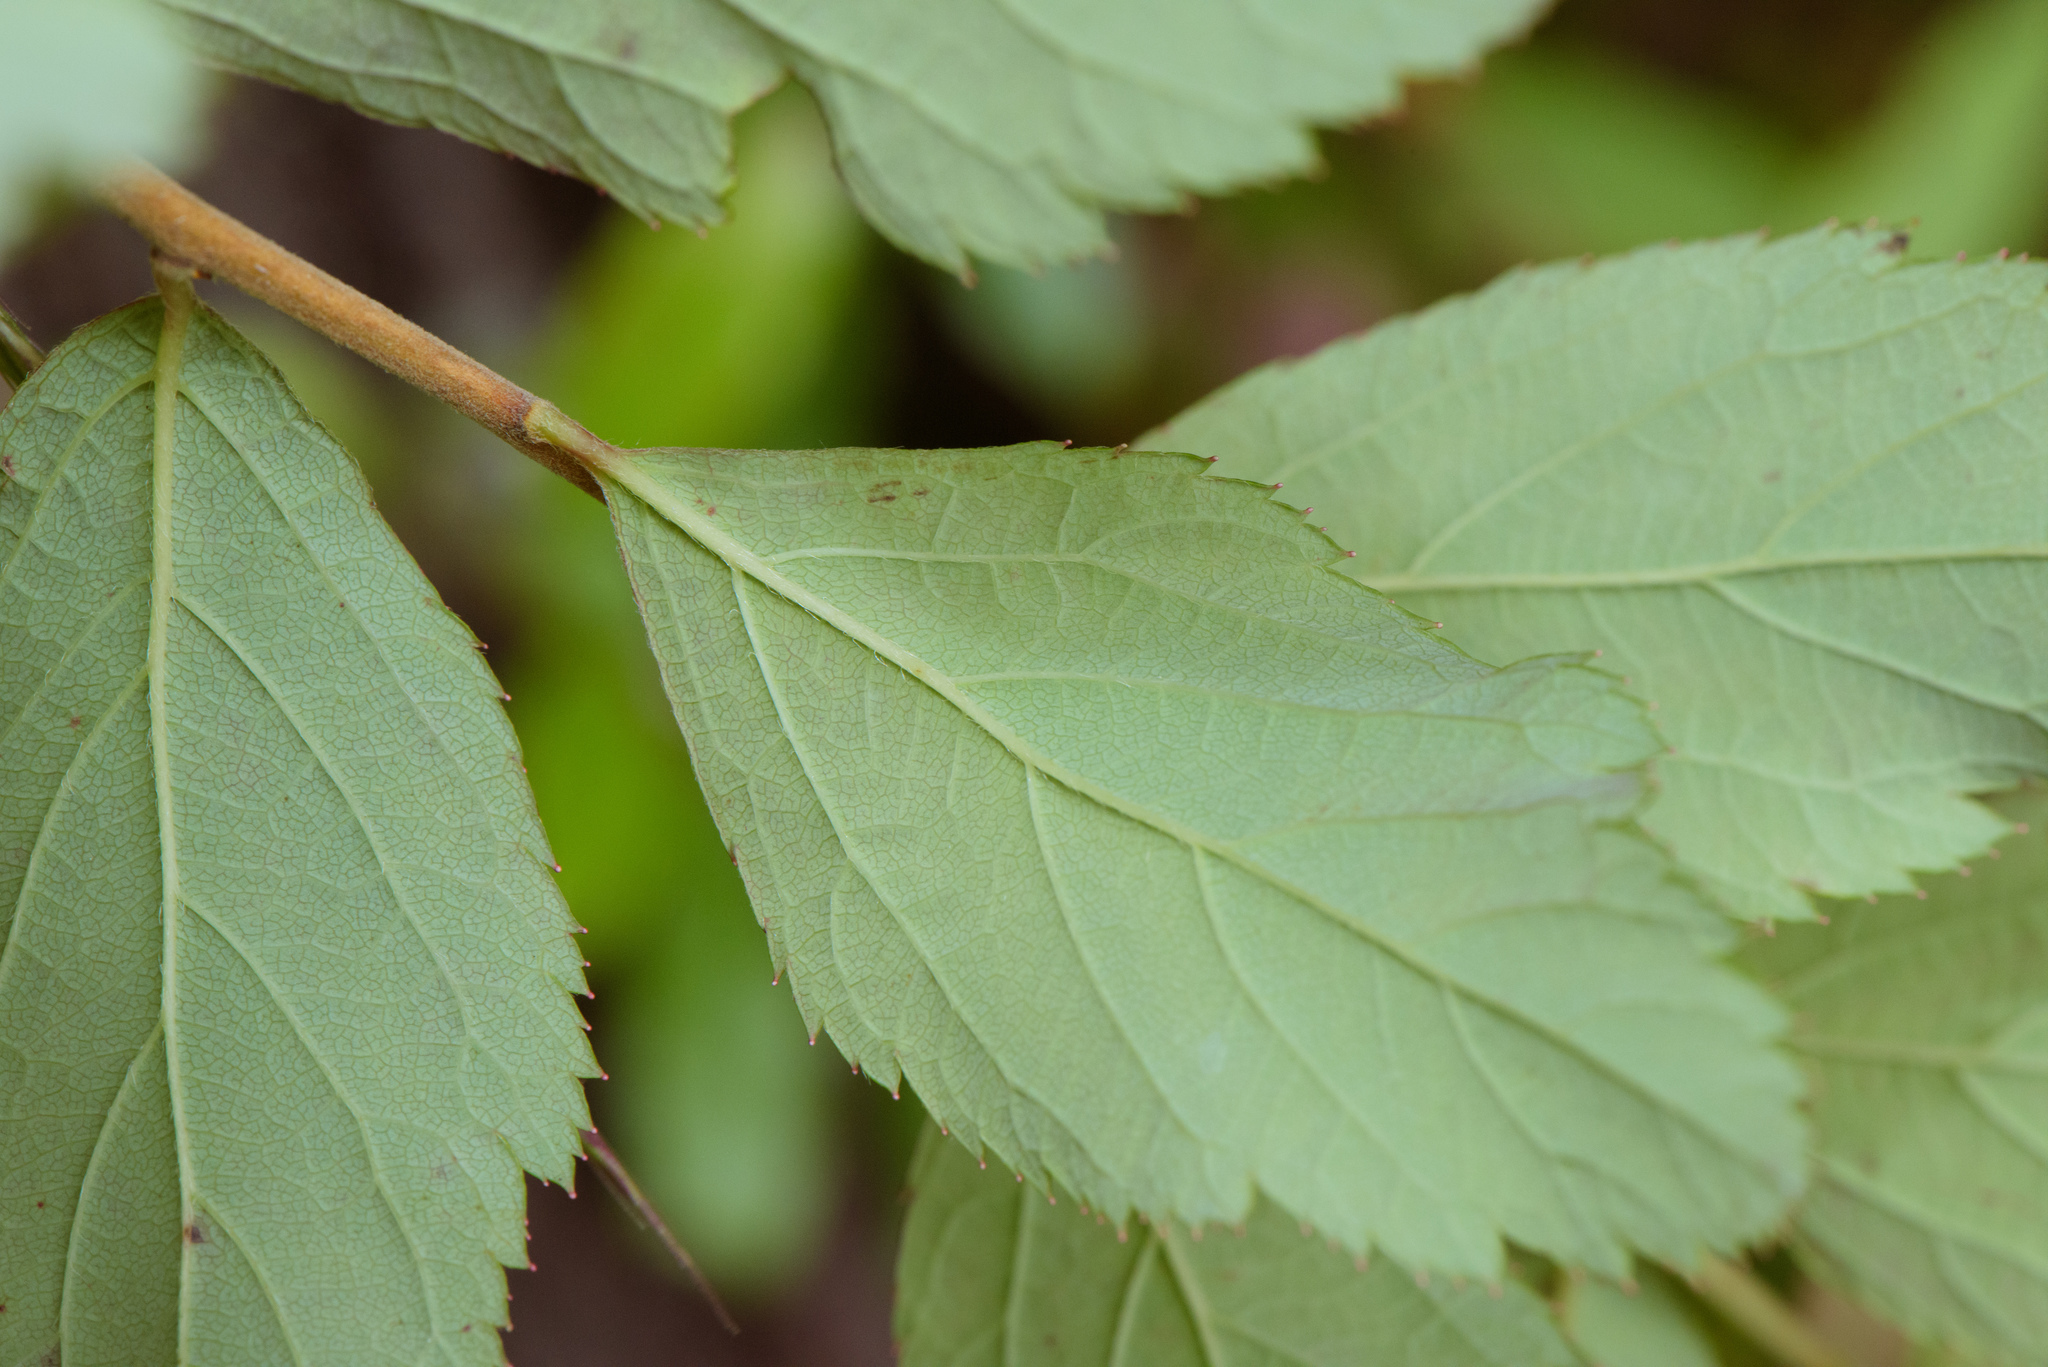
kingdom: Plantae
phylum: Tracheophyta
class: Magnoliopsida
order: Rosales
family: Rosaceae
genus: Spiraea
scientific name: Spiraea japonica
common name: Japanese spiraea
